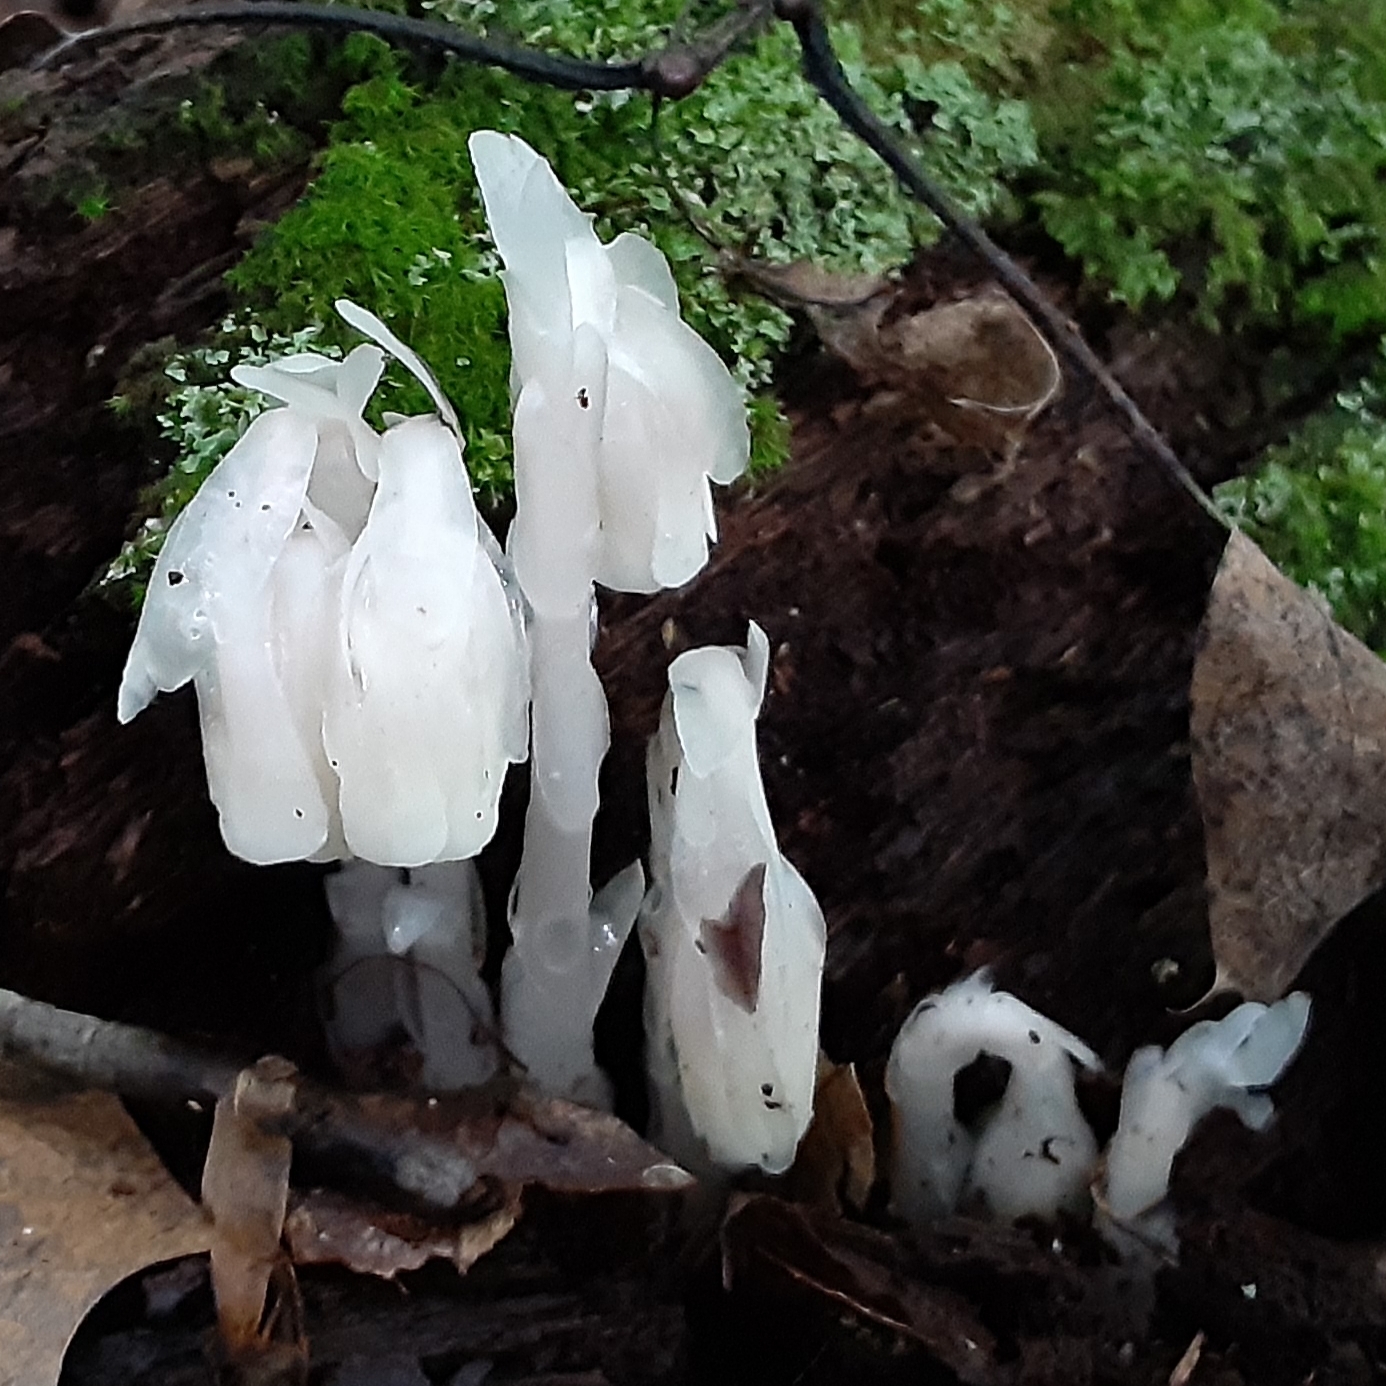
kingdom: Plantae
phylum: Tracheophyta
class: Magnoliopsida
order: Ericales
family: Ericaceae
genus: Monotropa
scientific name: Monotropa uniflora
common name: Convulsion root
